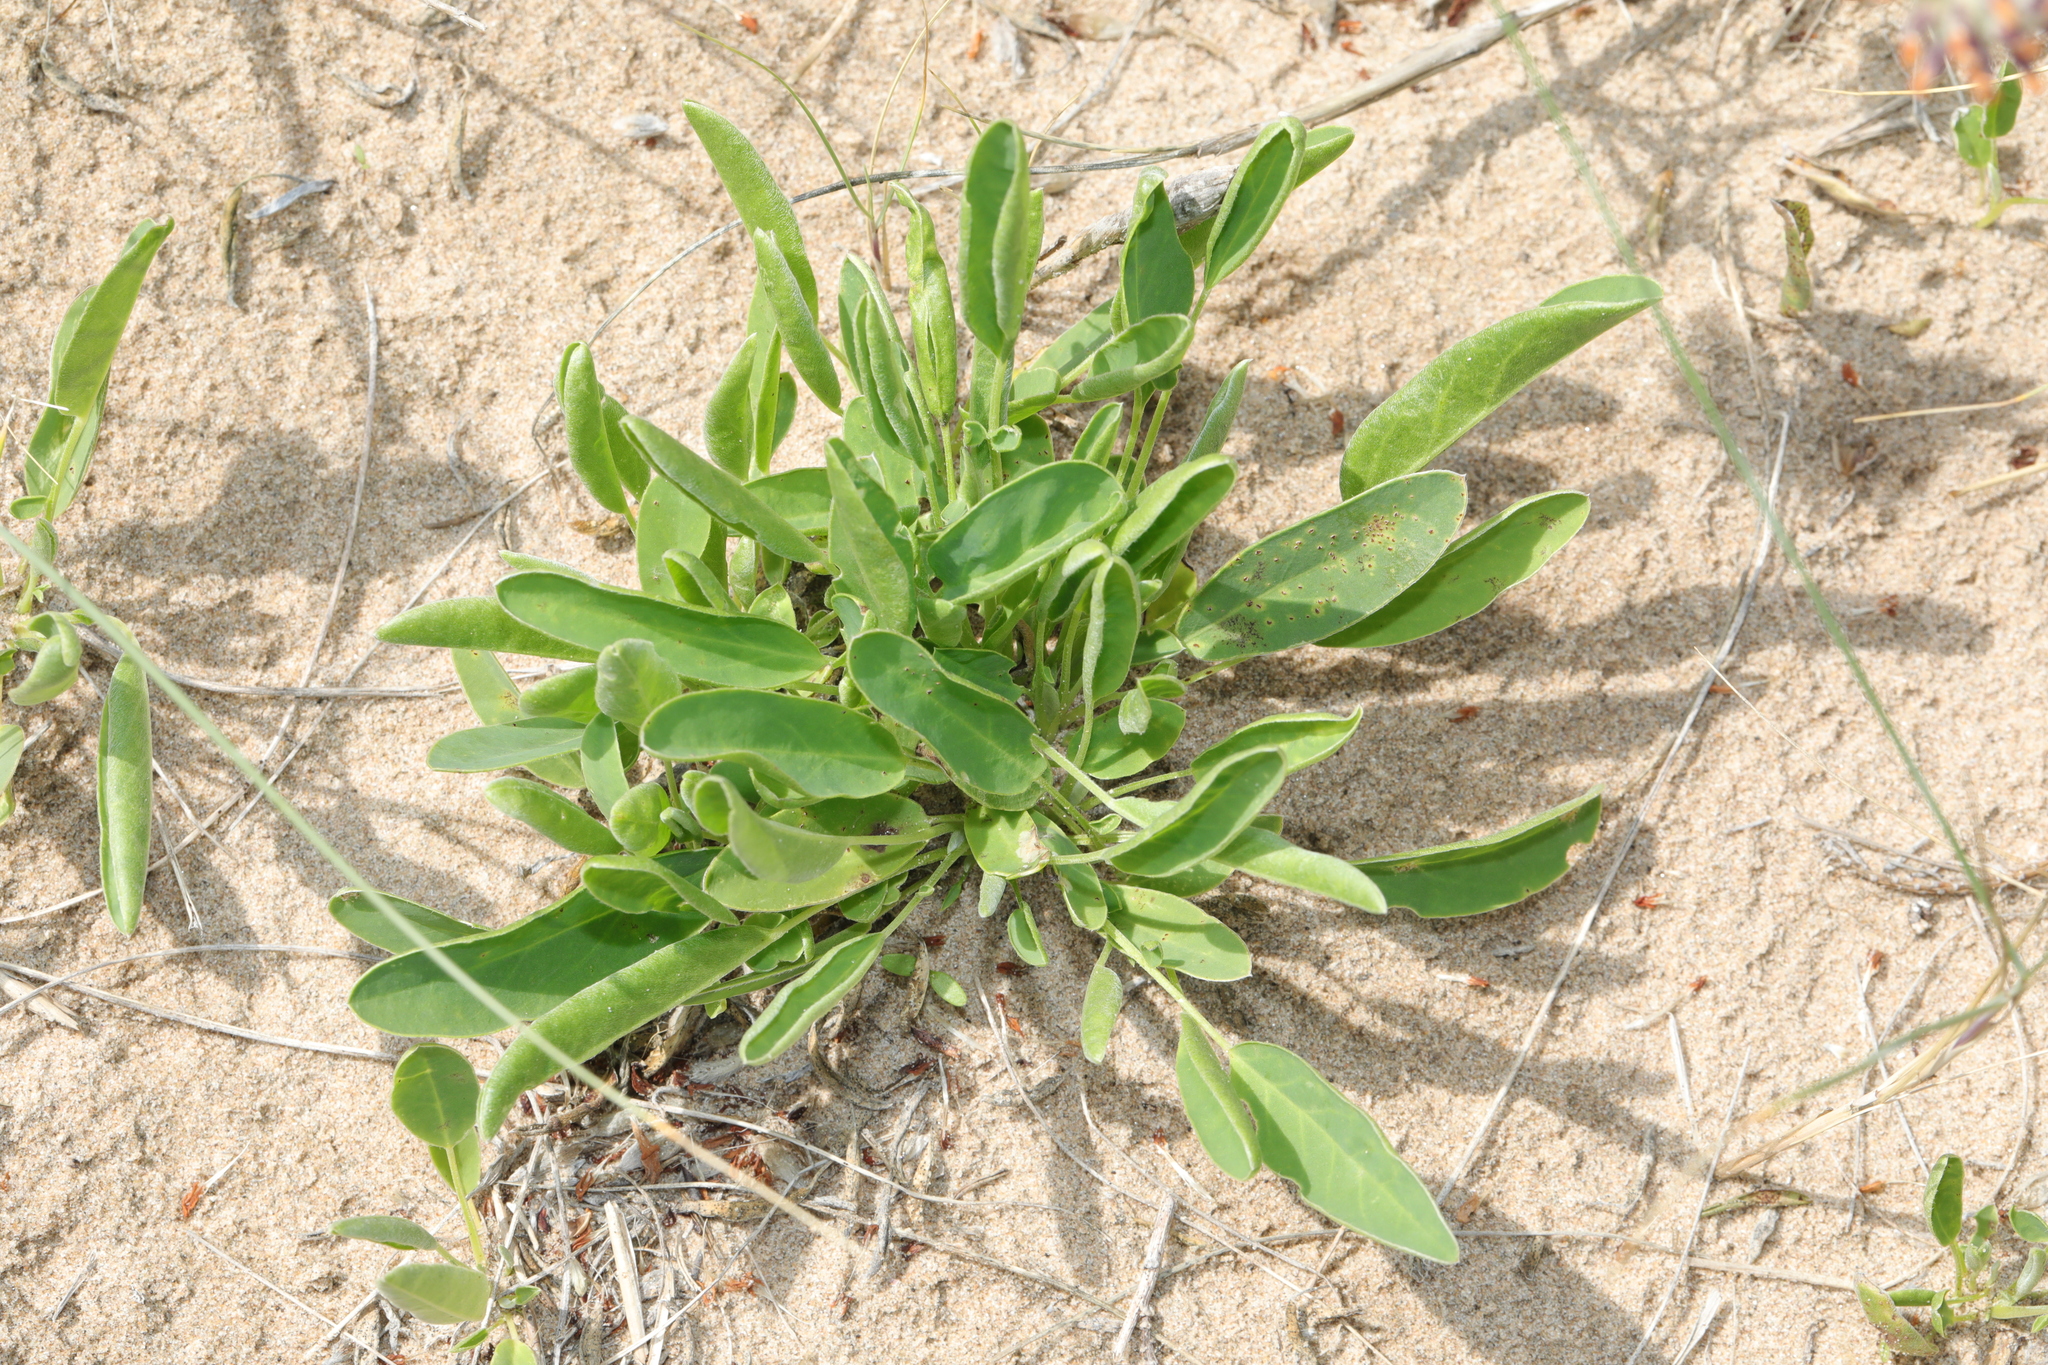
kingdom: Plantae
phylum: Tracheophyta
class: Magnoliopsida
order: Fabales
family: Fabaceae
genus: Anthyllis
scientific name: Anthyllis vulneraria
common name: Kidney vetch
